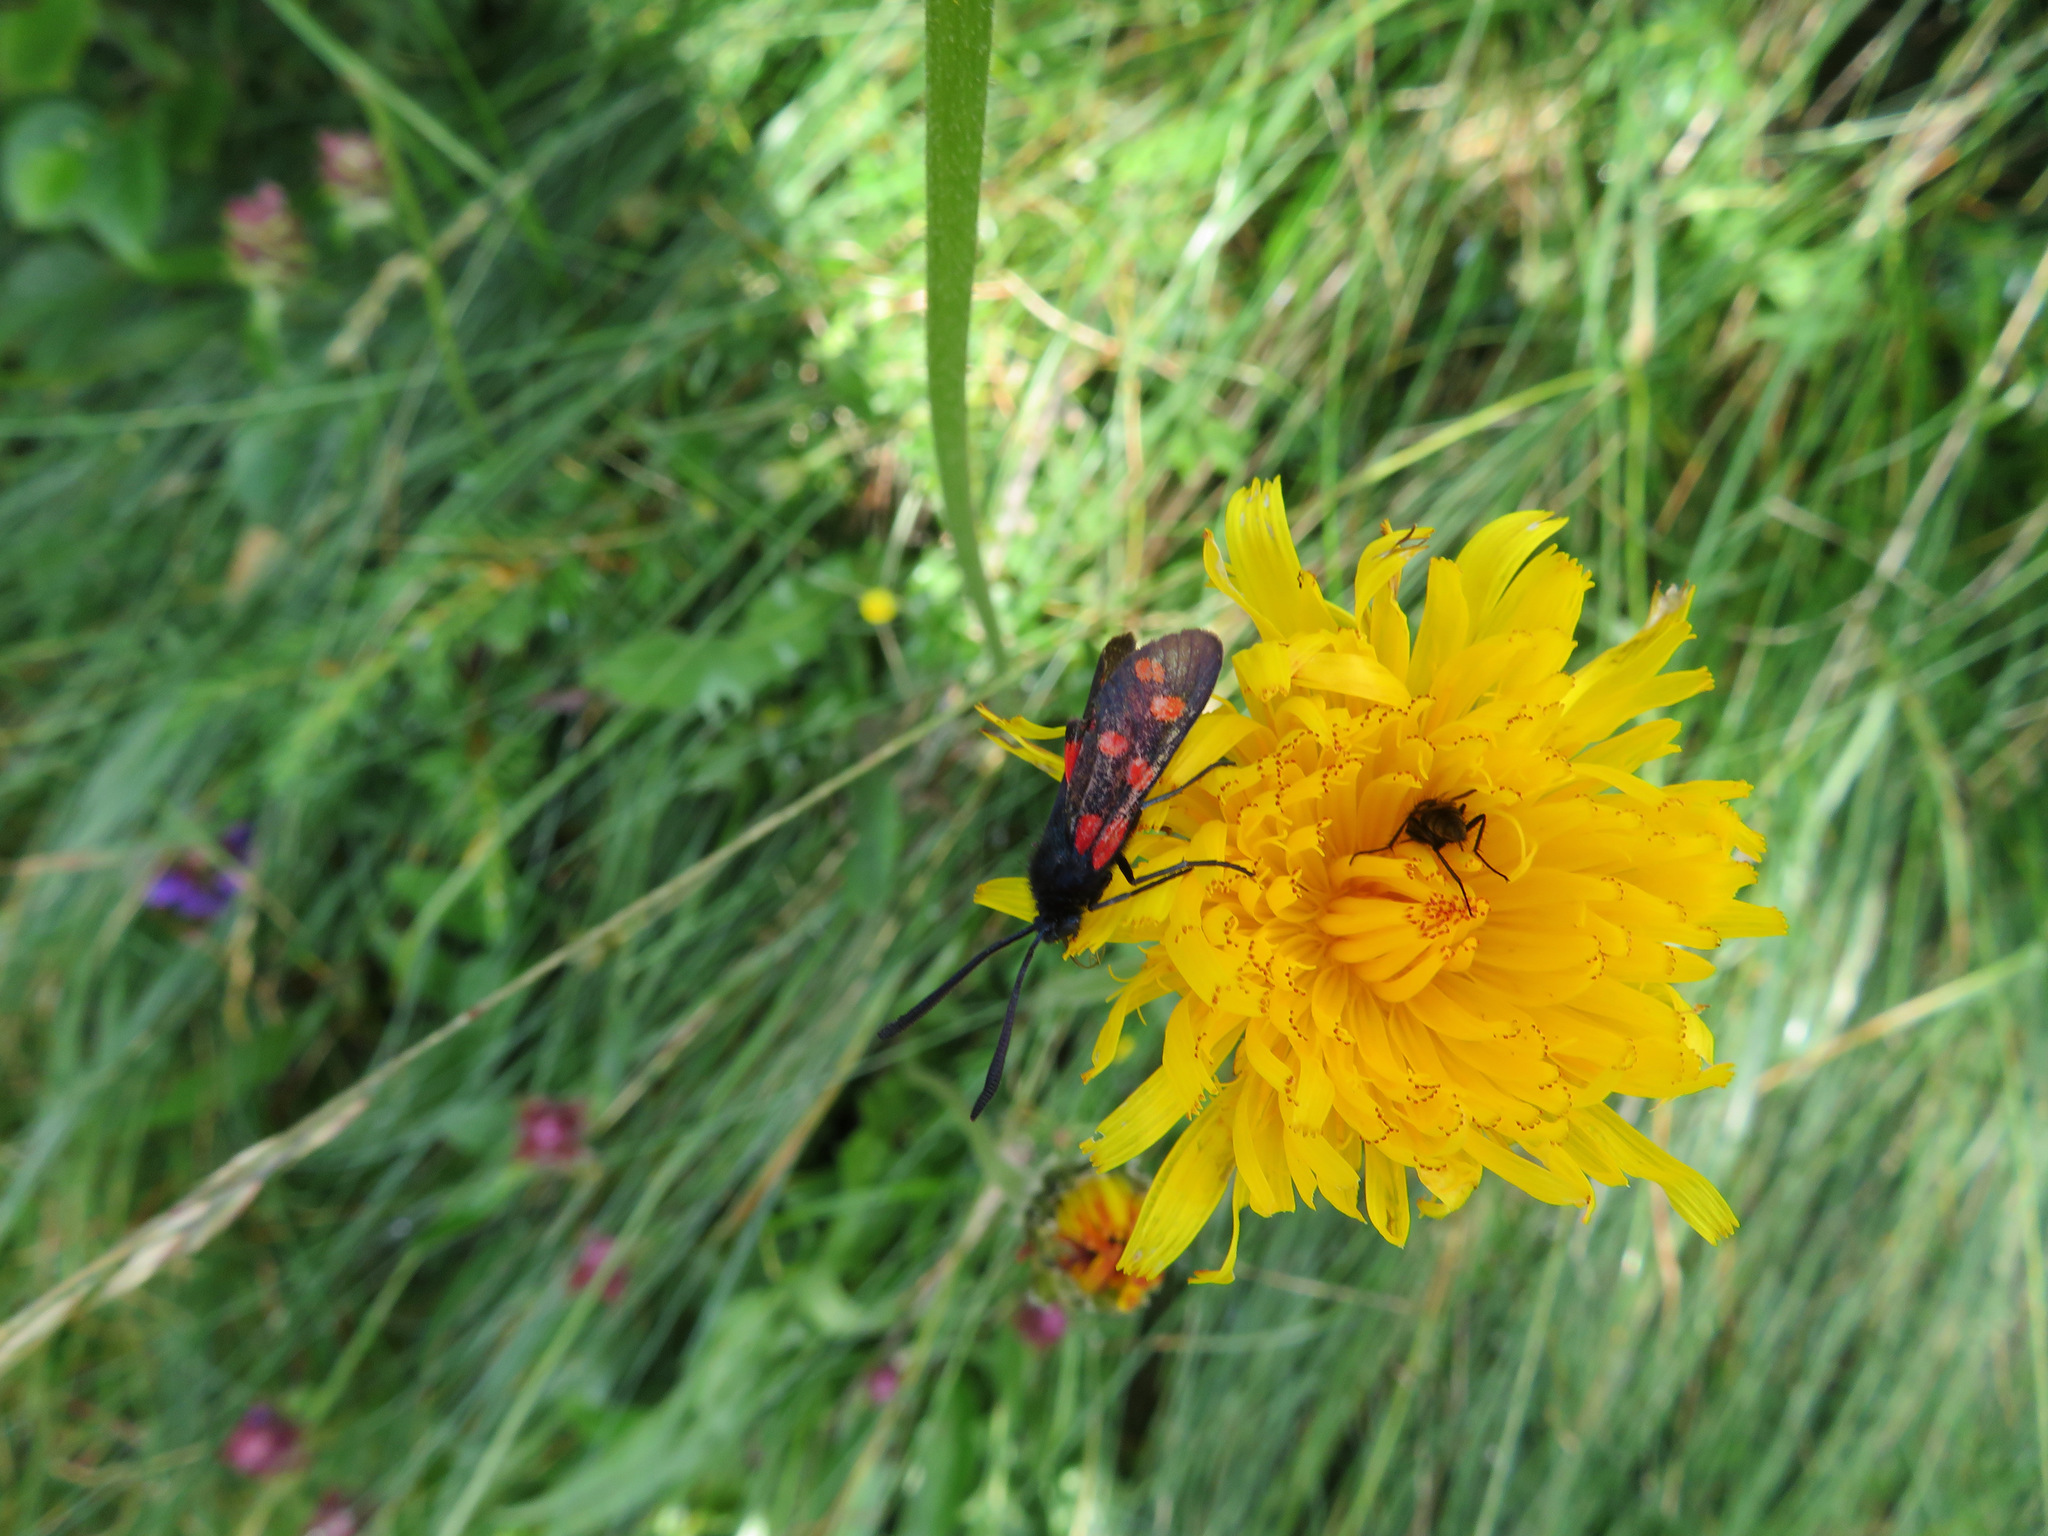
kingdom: Animalia
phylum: Arthropoda
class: Insecta
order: Lepidoptera
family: Zygaenidae
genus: Zygaena
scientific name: Zygaena filipendulae
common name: Six-spot burnet
